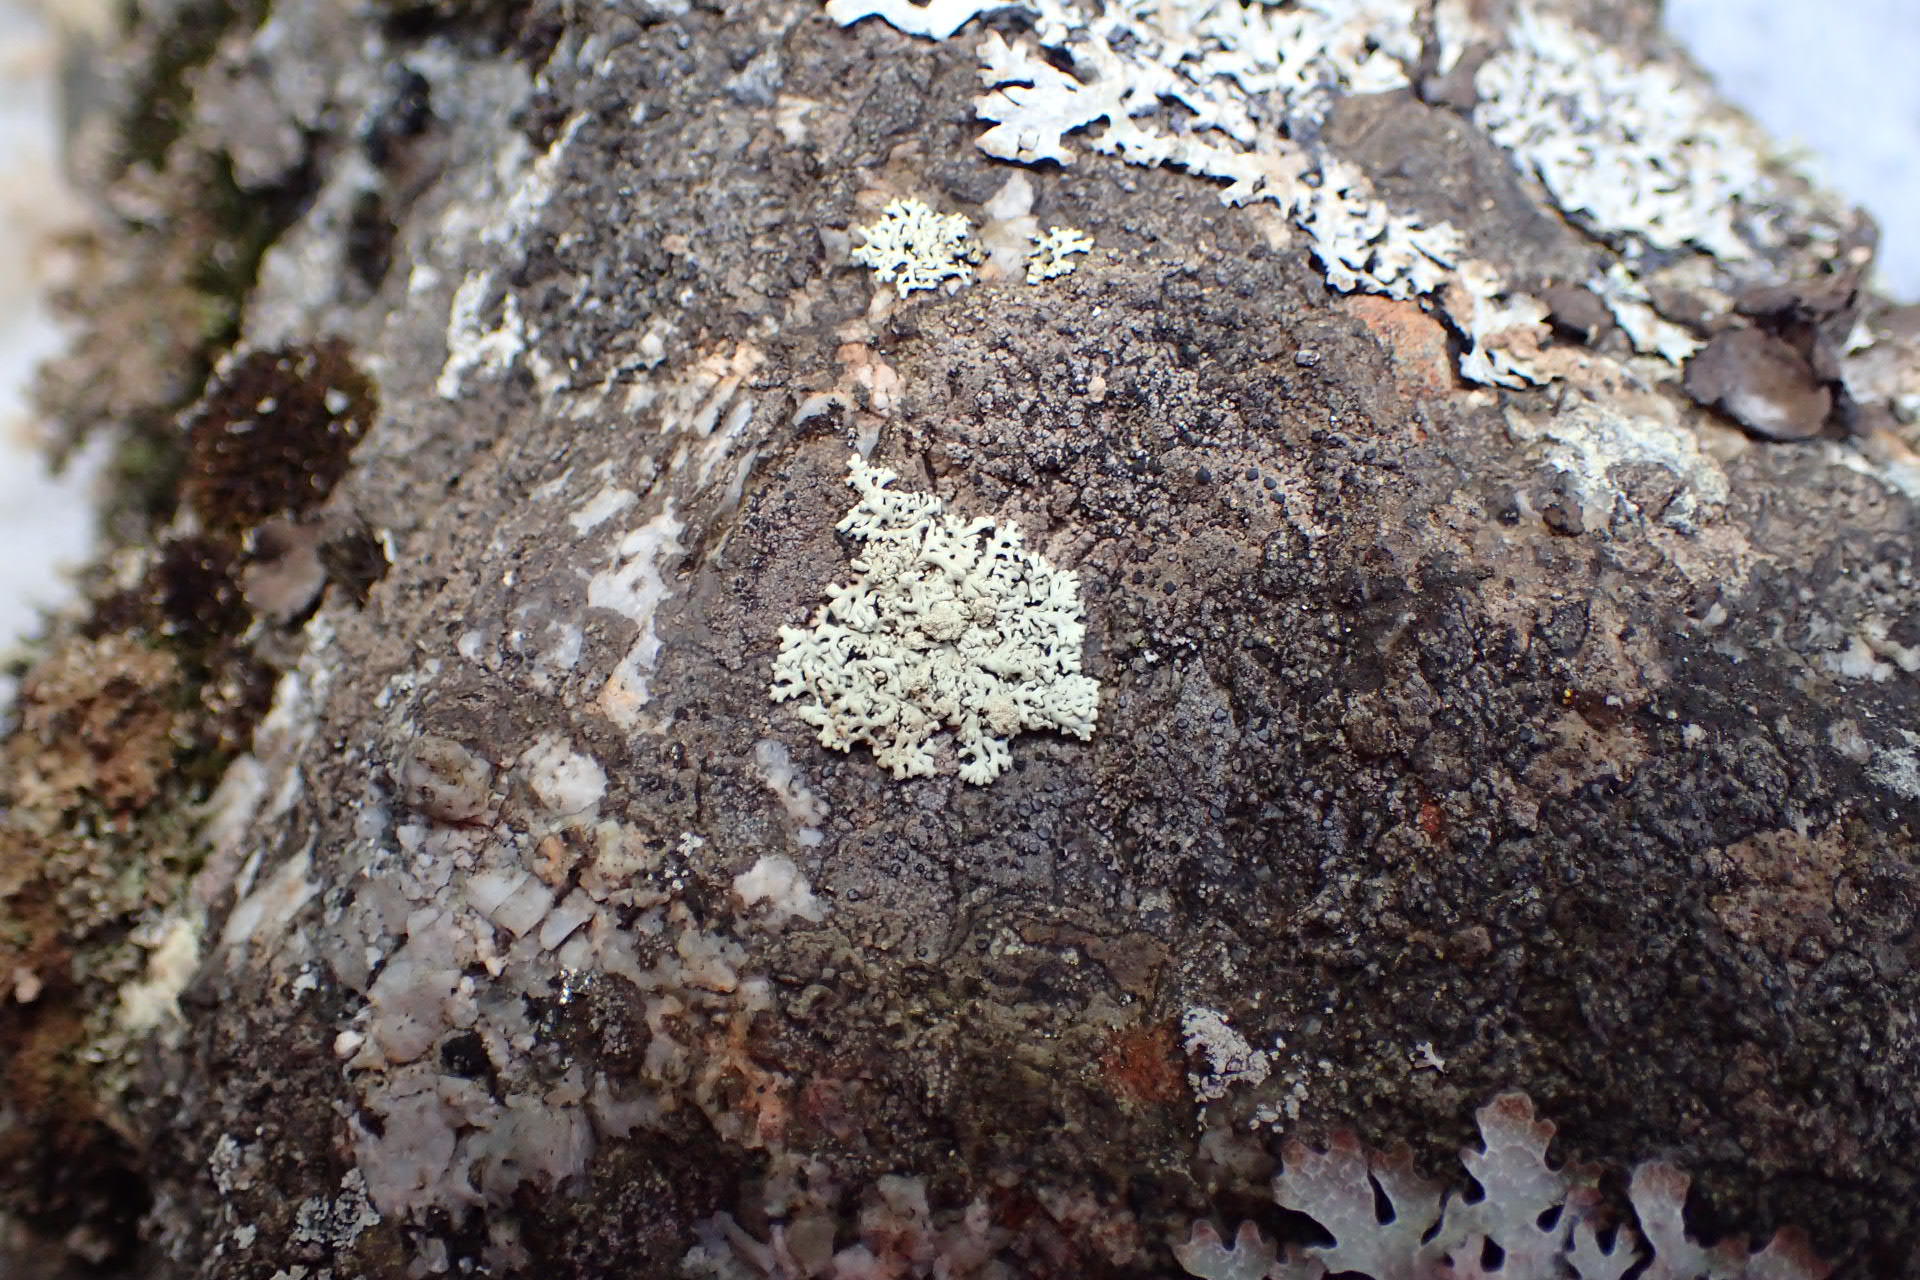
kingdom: Fungi
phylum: Ascomycota
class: Lecanoromycetes
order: Caliciales
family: Physciaceae
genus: Physcia
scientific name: Physcia subtilis
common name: Slender rosette lichen
